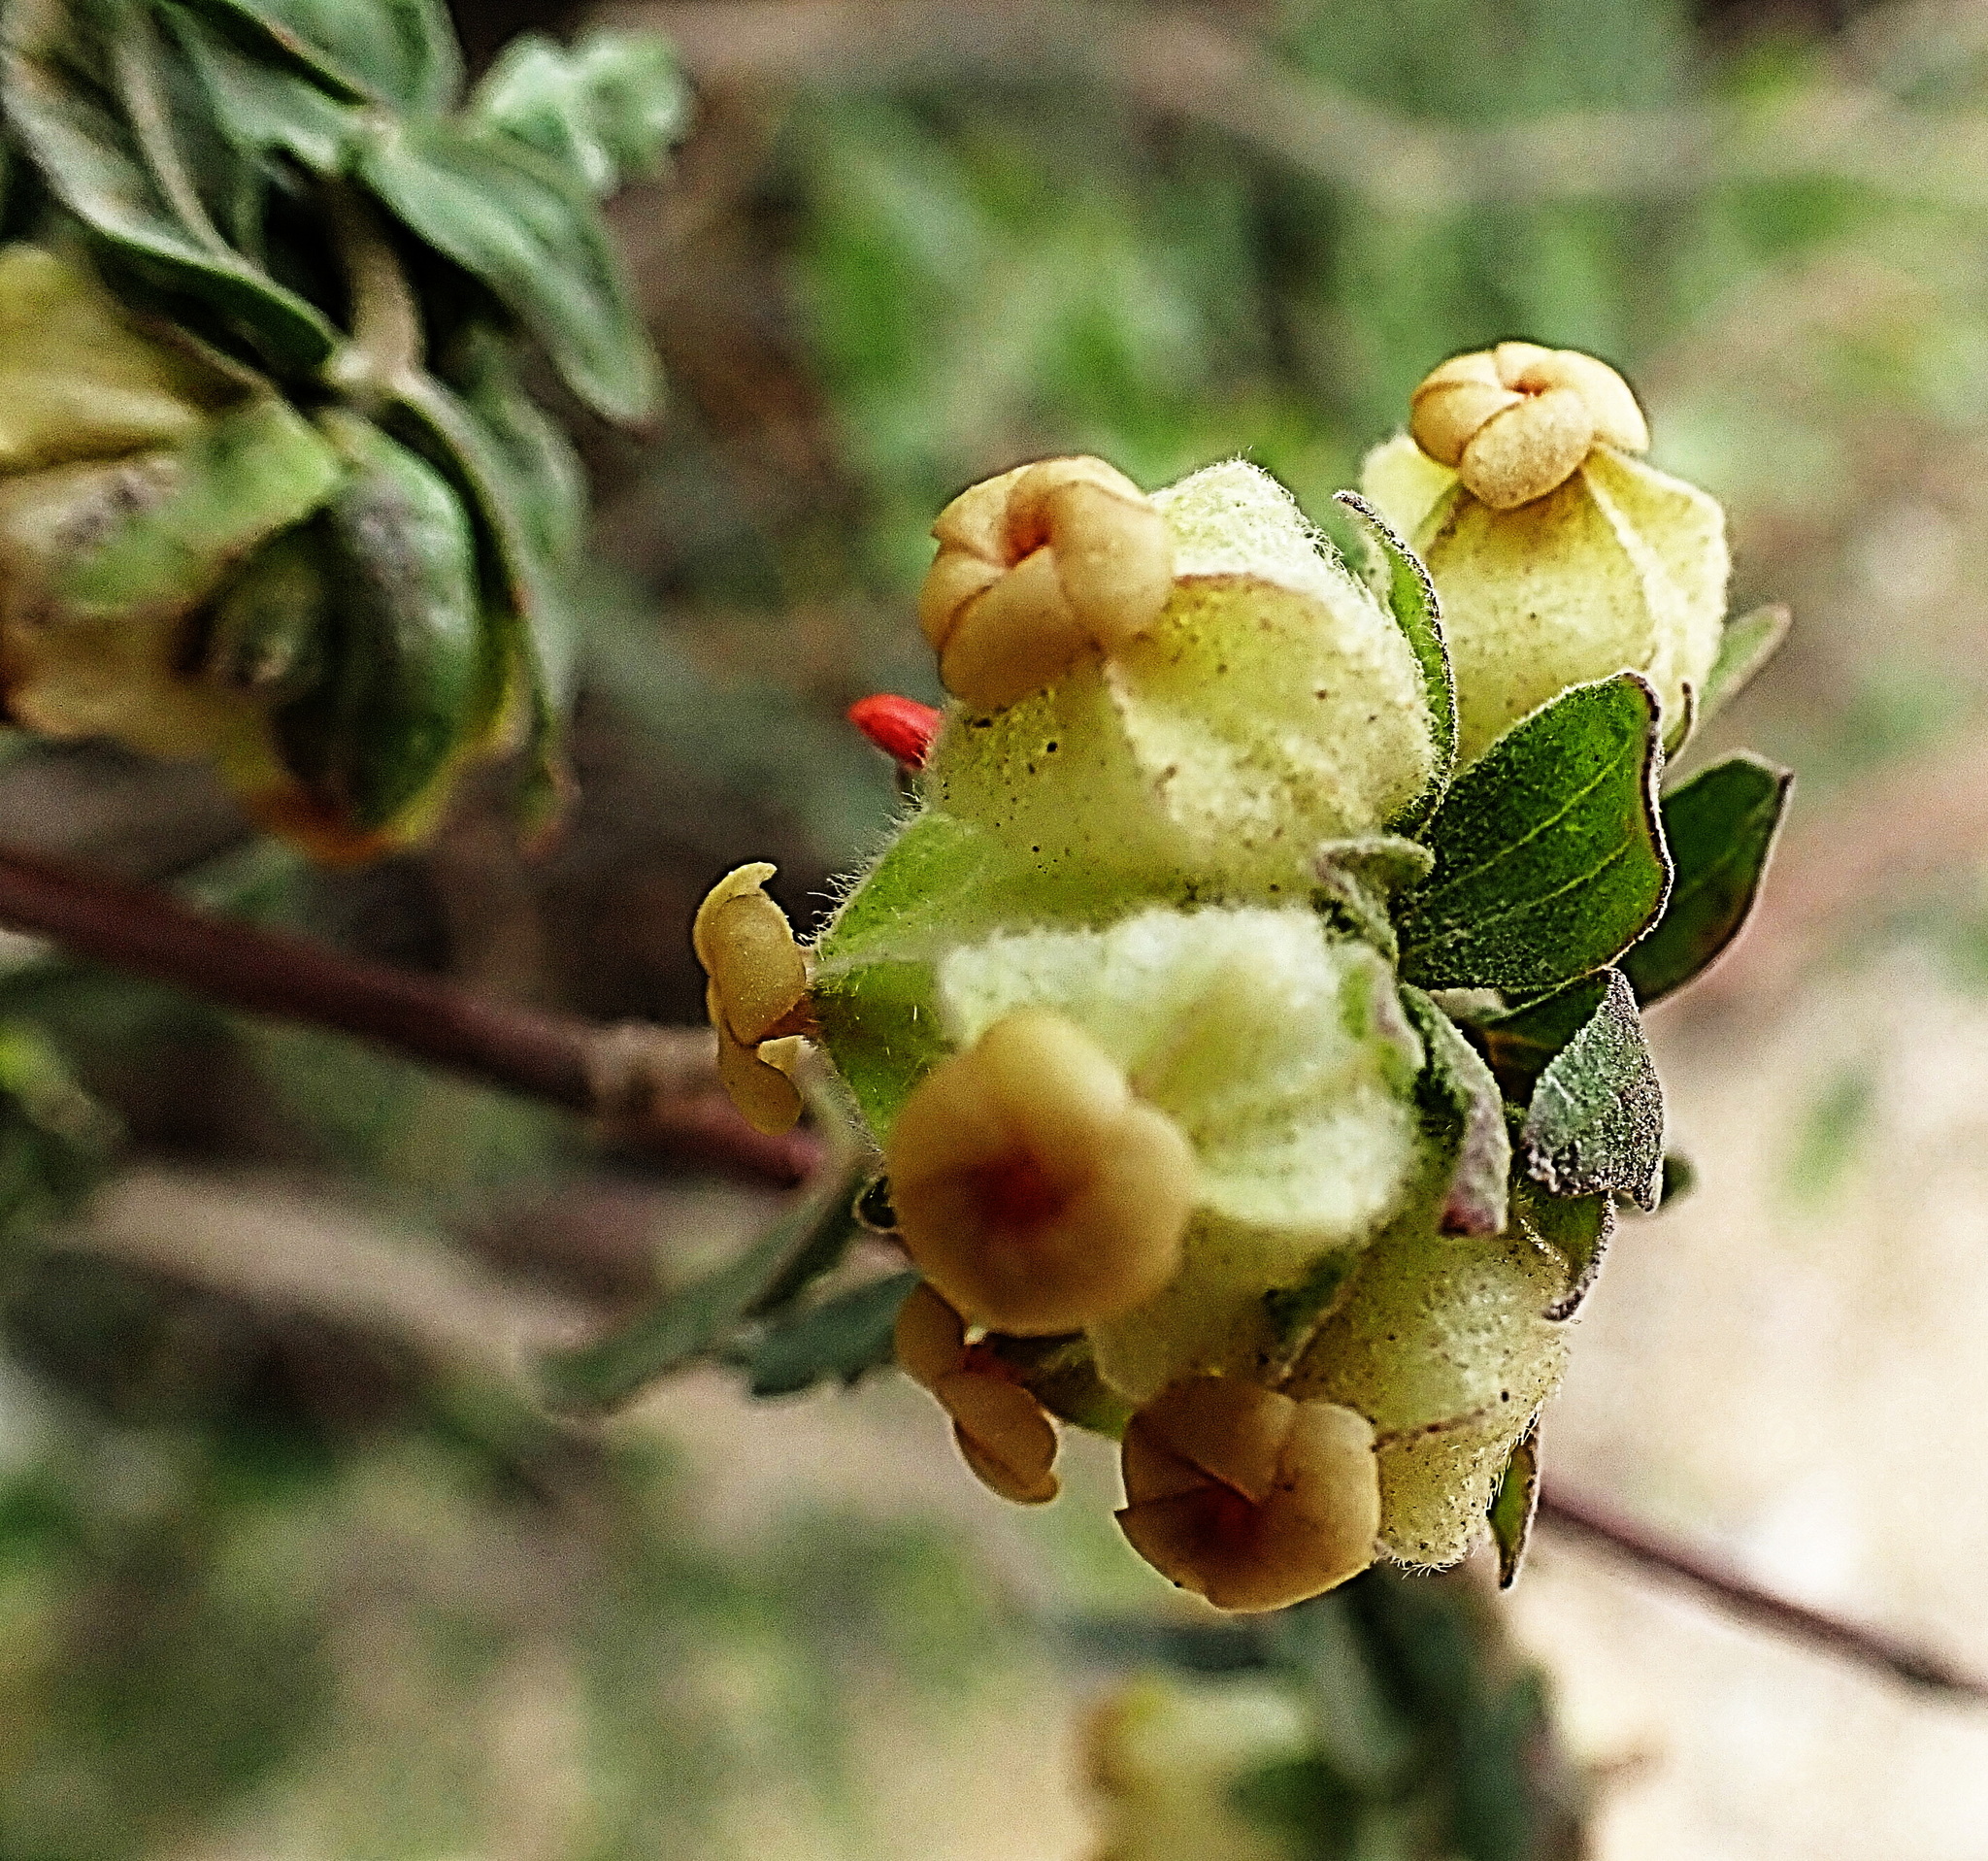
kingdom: Plantae
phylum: Tracheophyta
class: Magnoliopsida
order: Malvales
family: Malvaceae
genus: Hermannia
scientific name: Hermannia hyssopifolia
